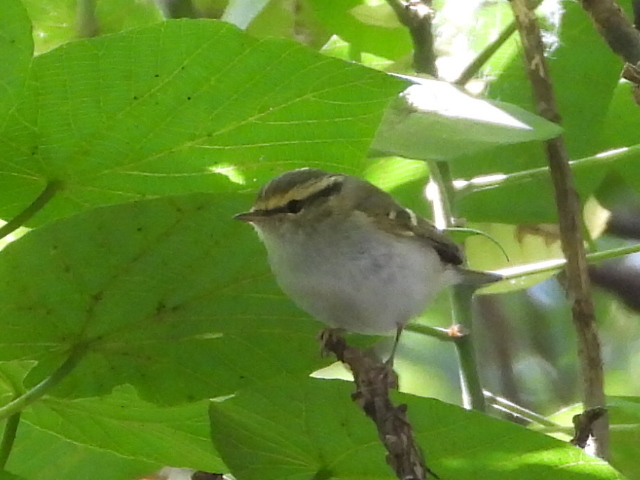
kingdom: Animalia
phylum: Chordata
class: Aves
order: Passeriformes
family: Phylloscopidae
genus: Phylloscopus
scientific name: Phylloscopus proregulus
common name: Pallas's leaf warbler
